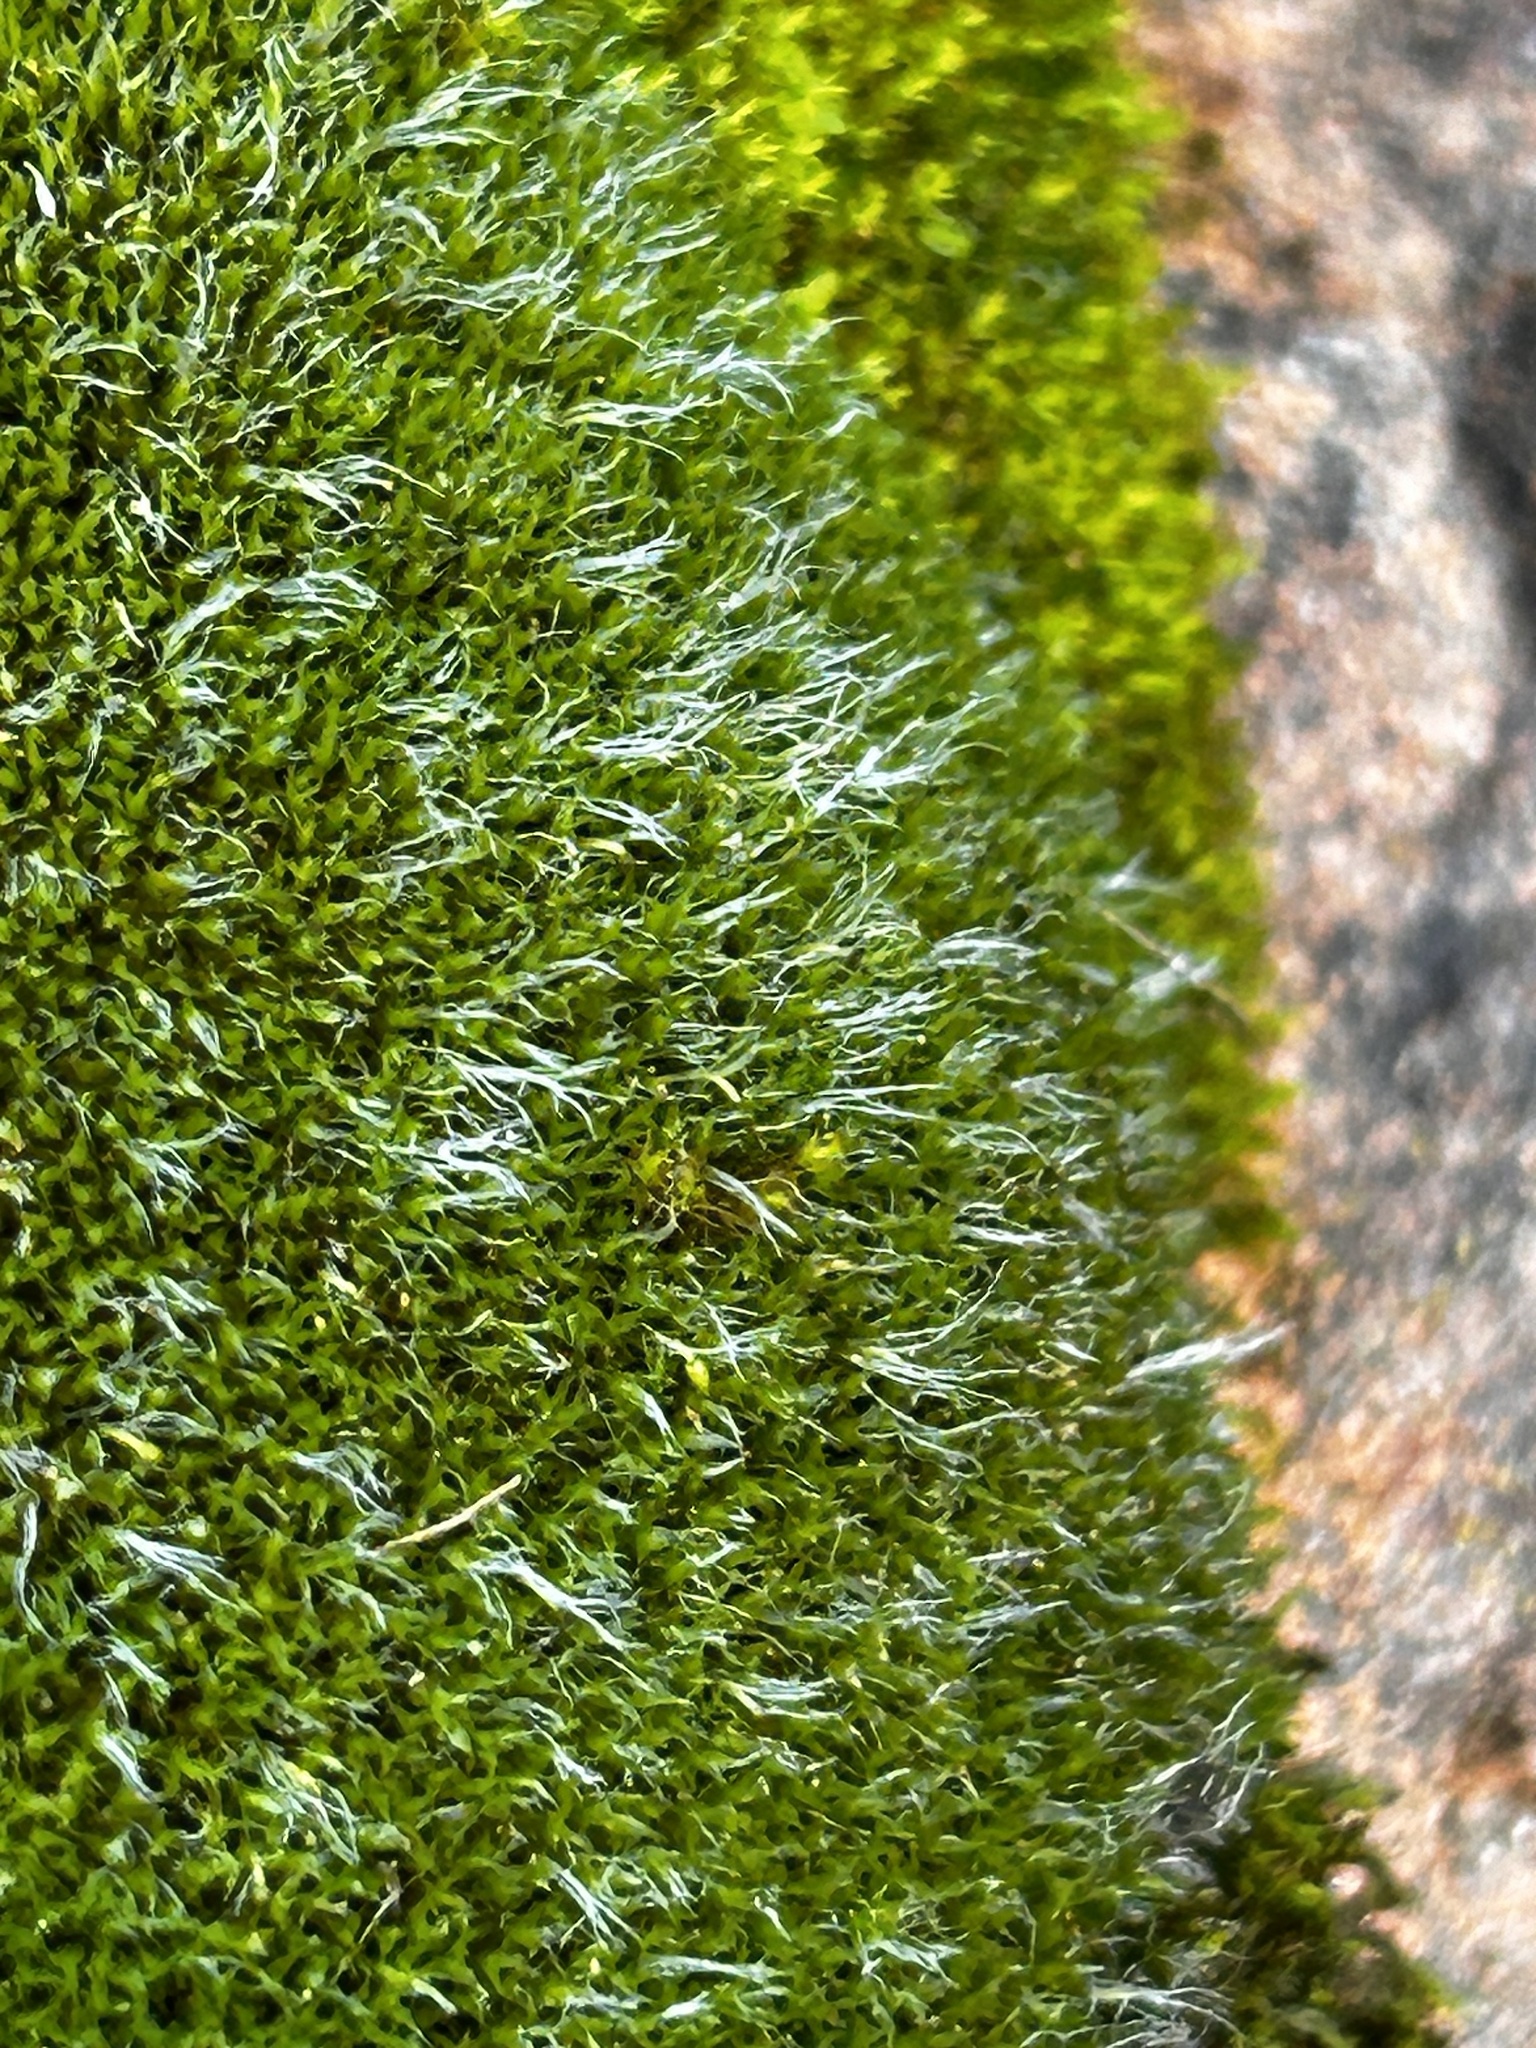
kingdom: Plantae
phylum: Bryophyta
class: Bryopsida
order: Grimmiales
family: Grimmiaceae
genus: Grimmia
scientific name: Grimmia laevigata
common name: Hoary grimmia
